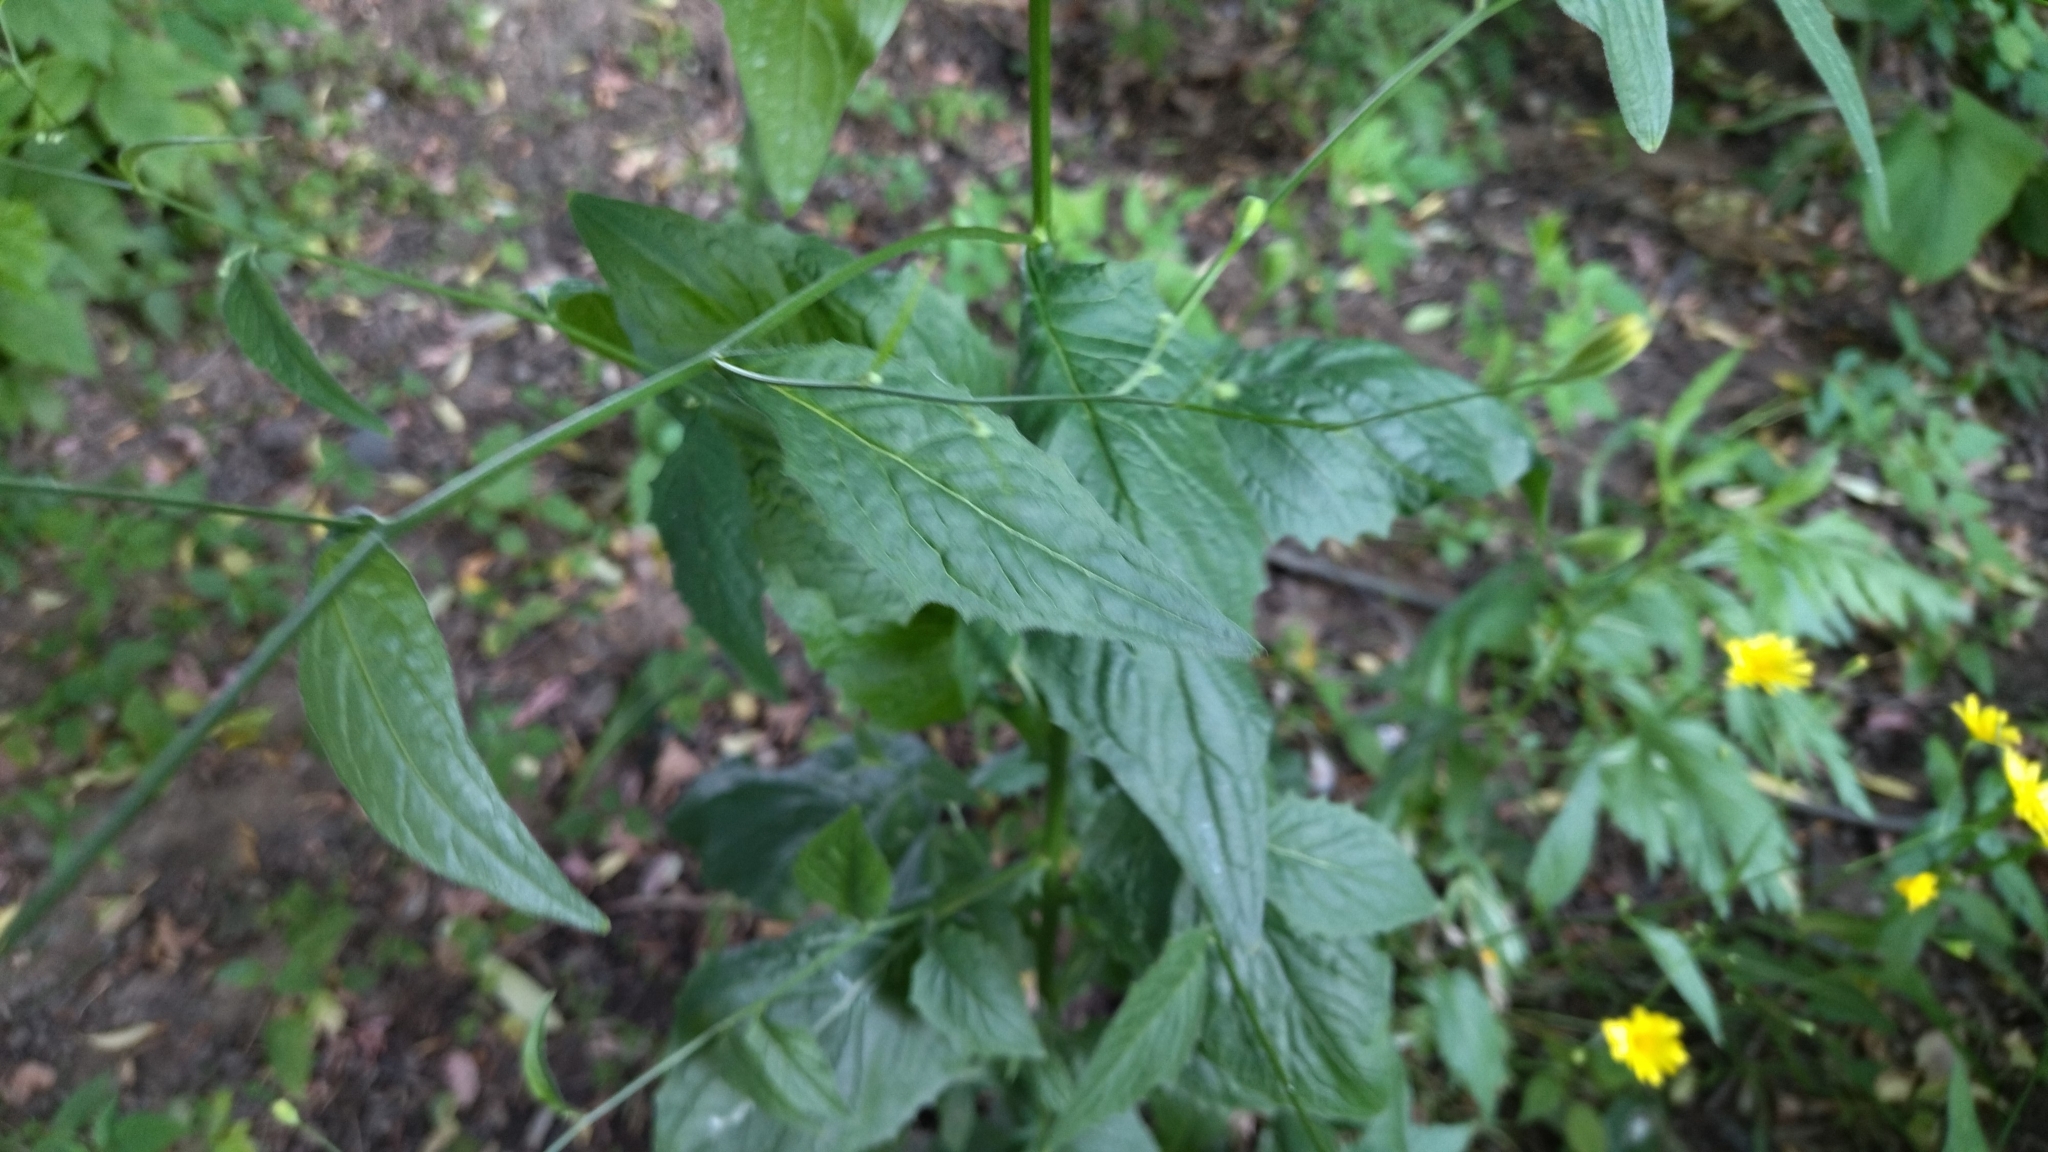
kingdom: Plantae
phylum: Tracheophyta
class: Magnoliopsida
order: Asterales
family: Asteraceae
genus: Lapsana
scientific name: Lapsana communis
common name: Nipplewort
